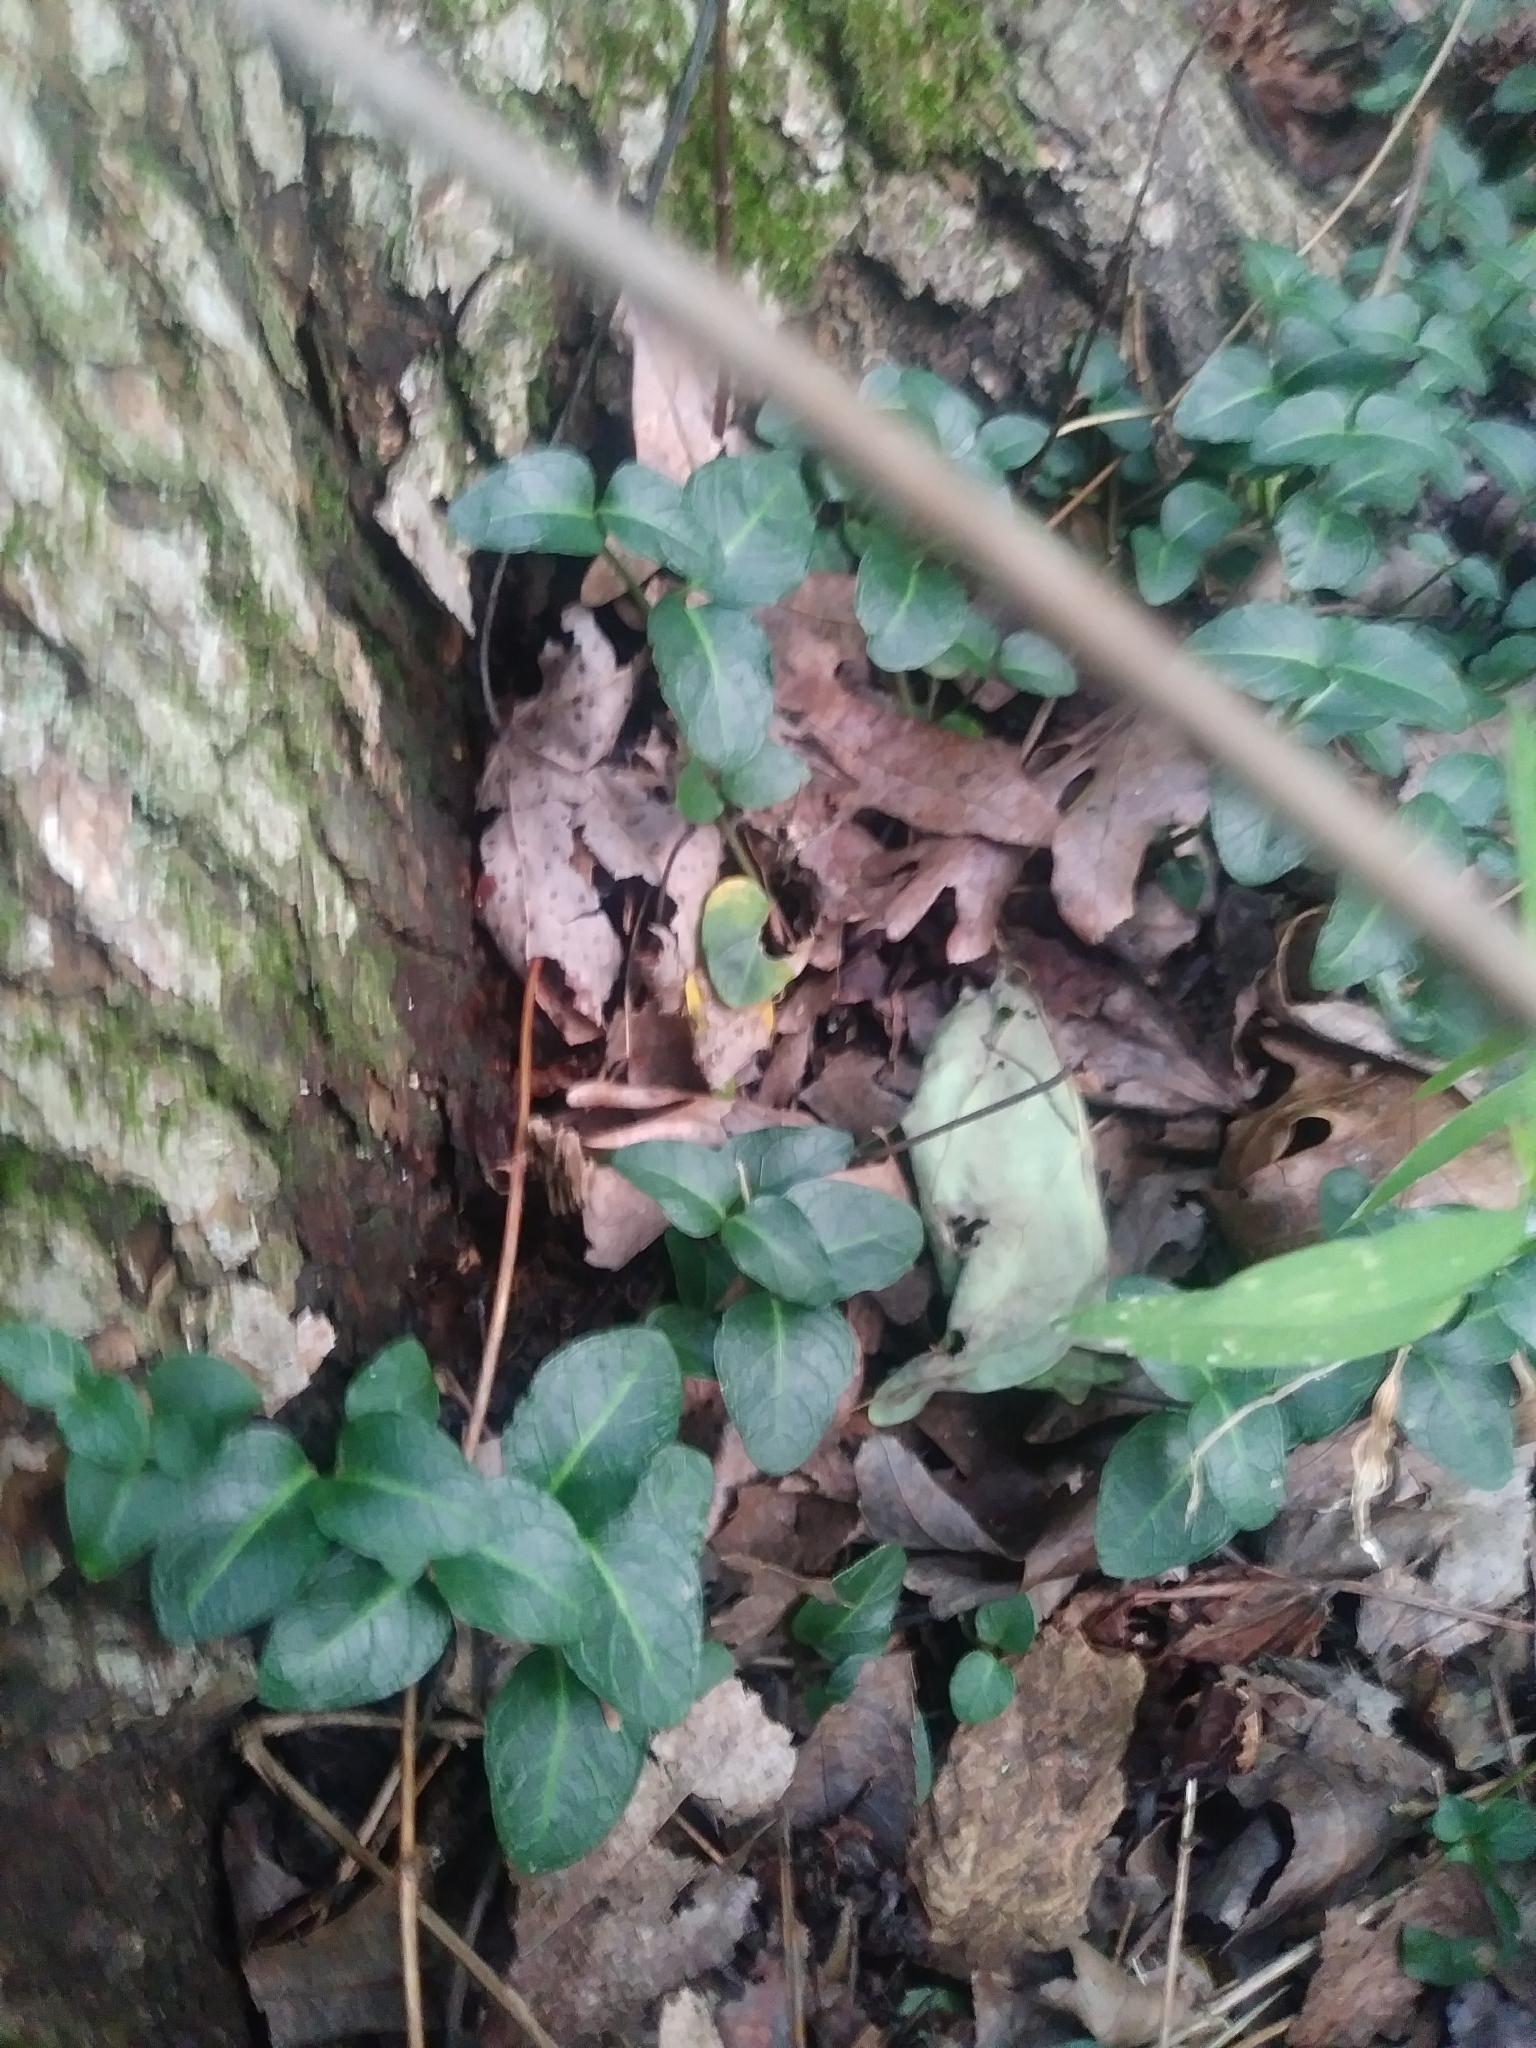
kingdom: Plantae
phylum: Tracheophyta
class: Magnoliopsida
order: Gentianales
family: Rubiaceae
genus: Mitchella
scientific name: Mitchella repens
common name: Partridge-berry
